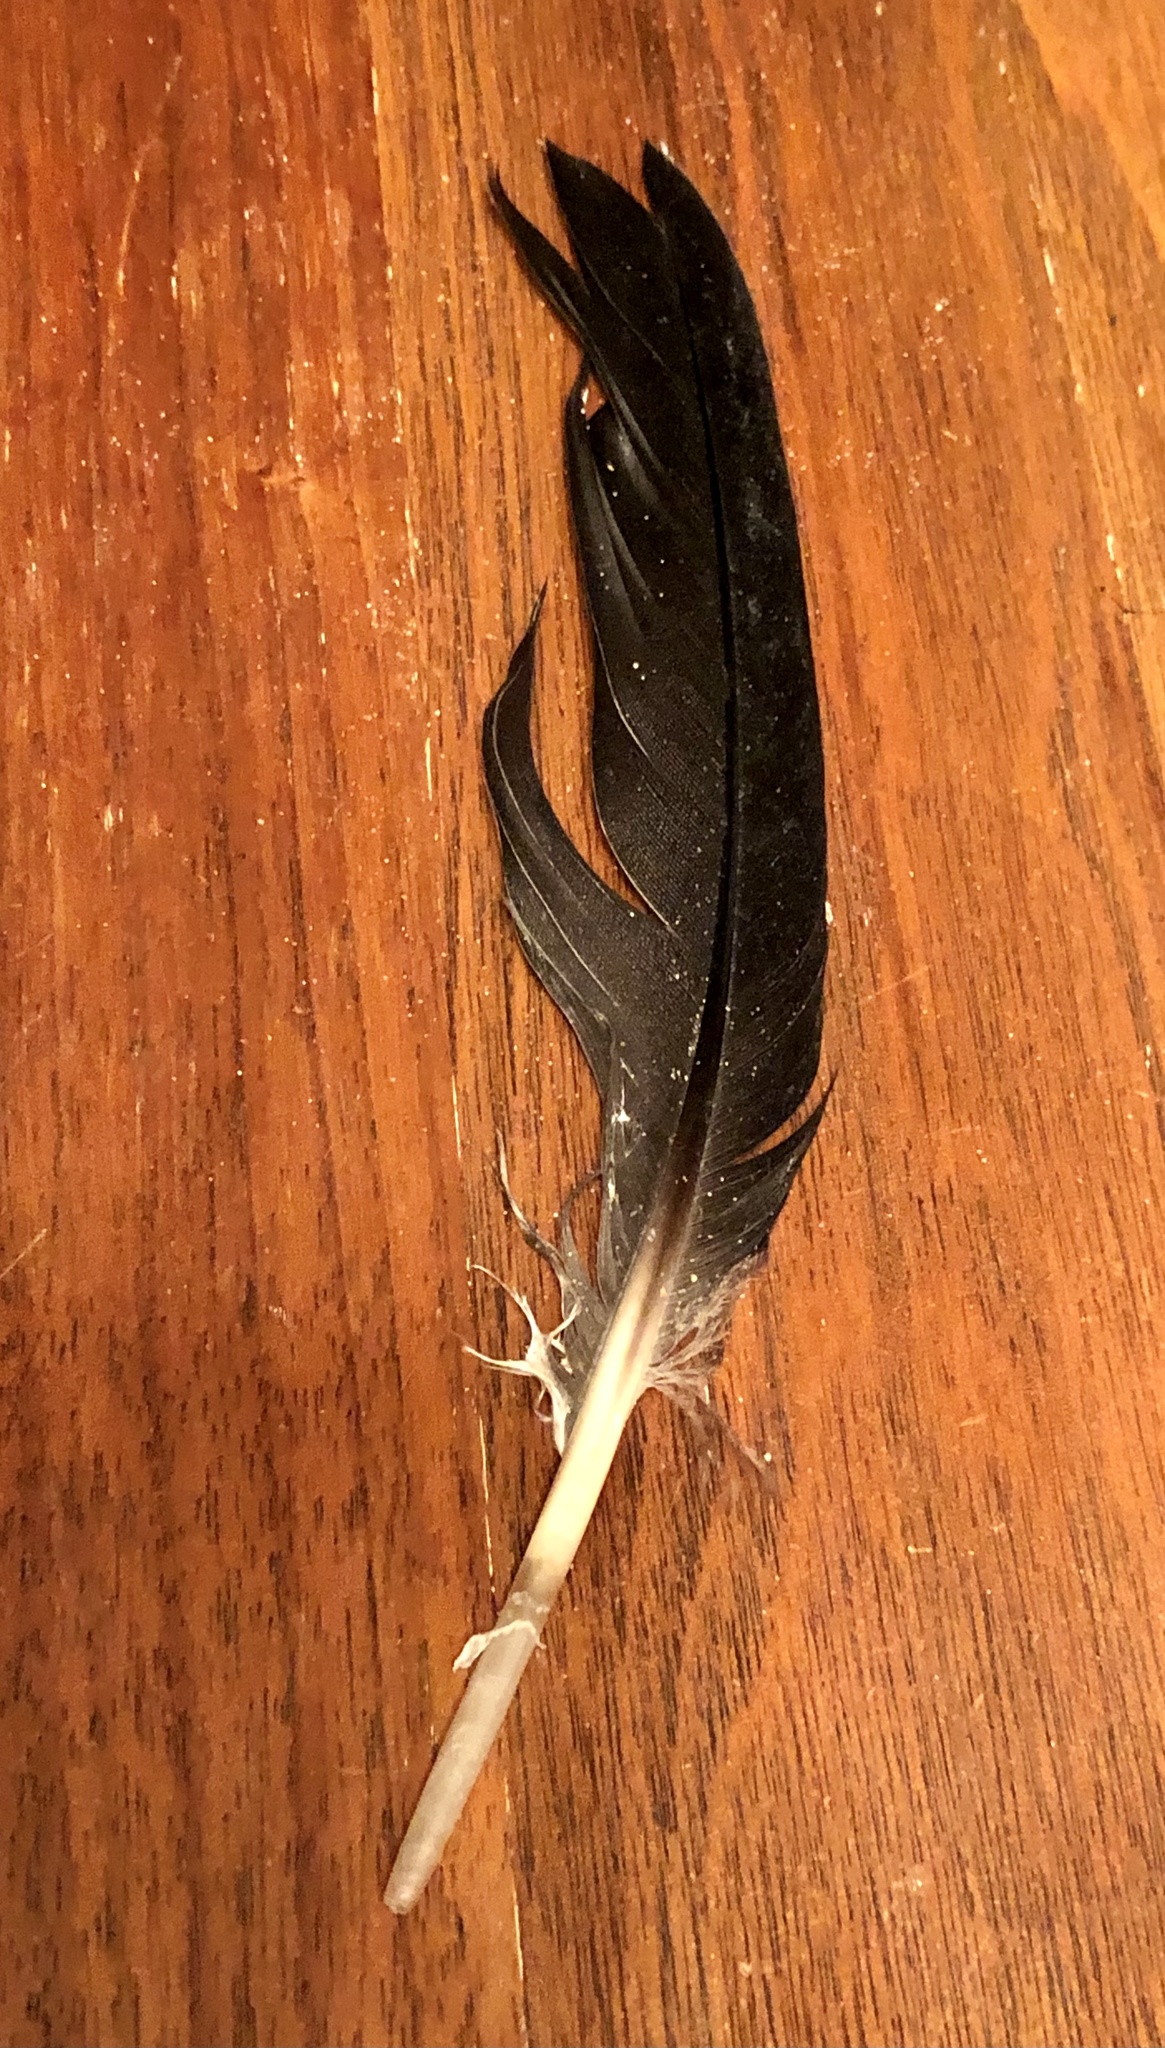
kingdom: Animalia
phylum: Chordata
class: Aves
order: Anseriformes
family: Anatidae
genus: Branta
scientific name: Branta canadensis
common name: Canada goose
